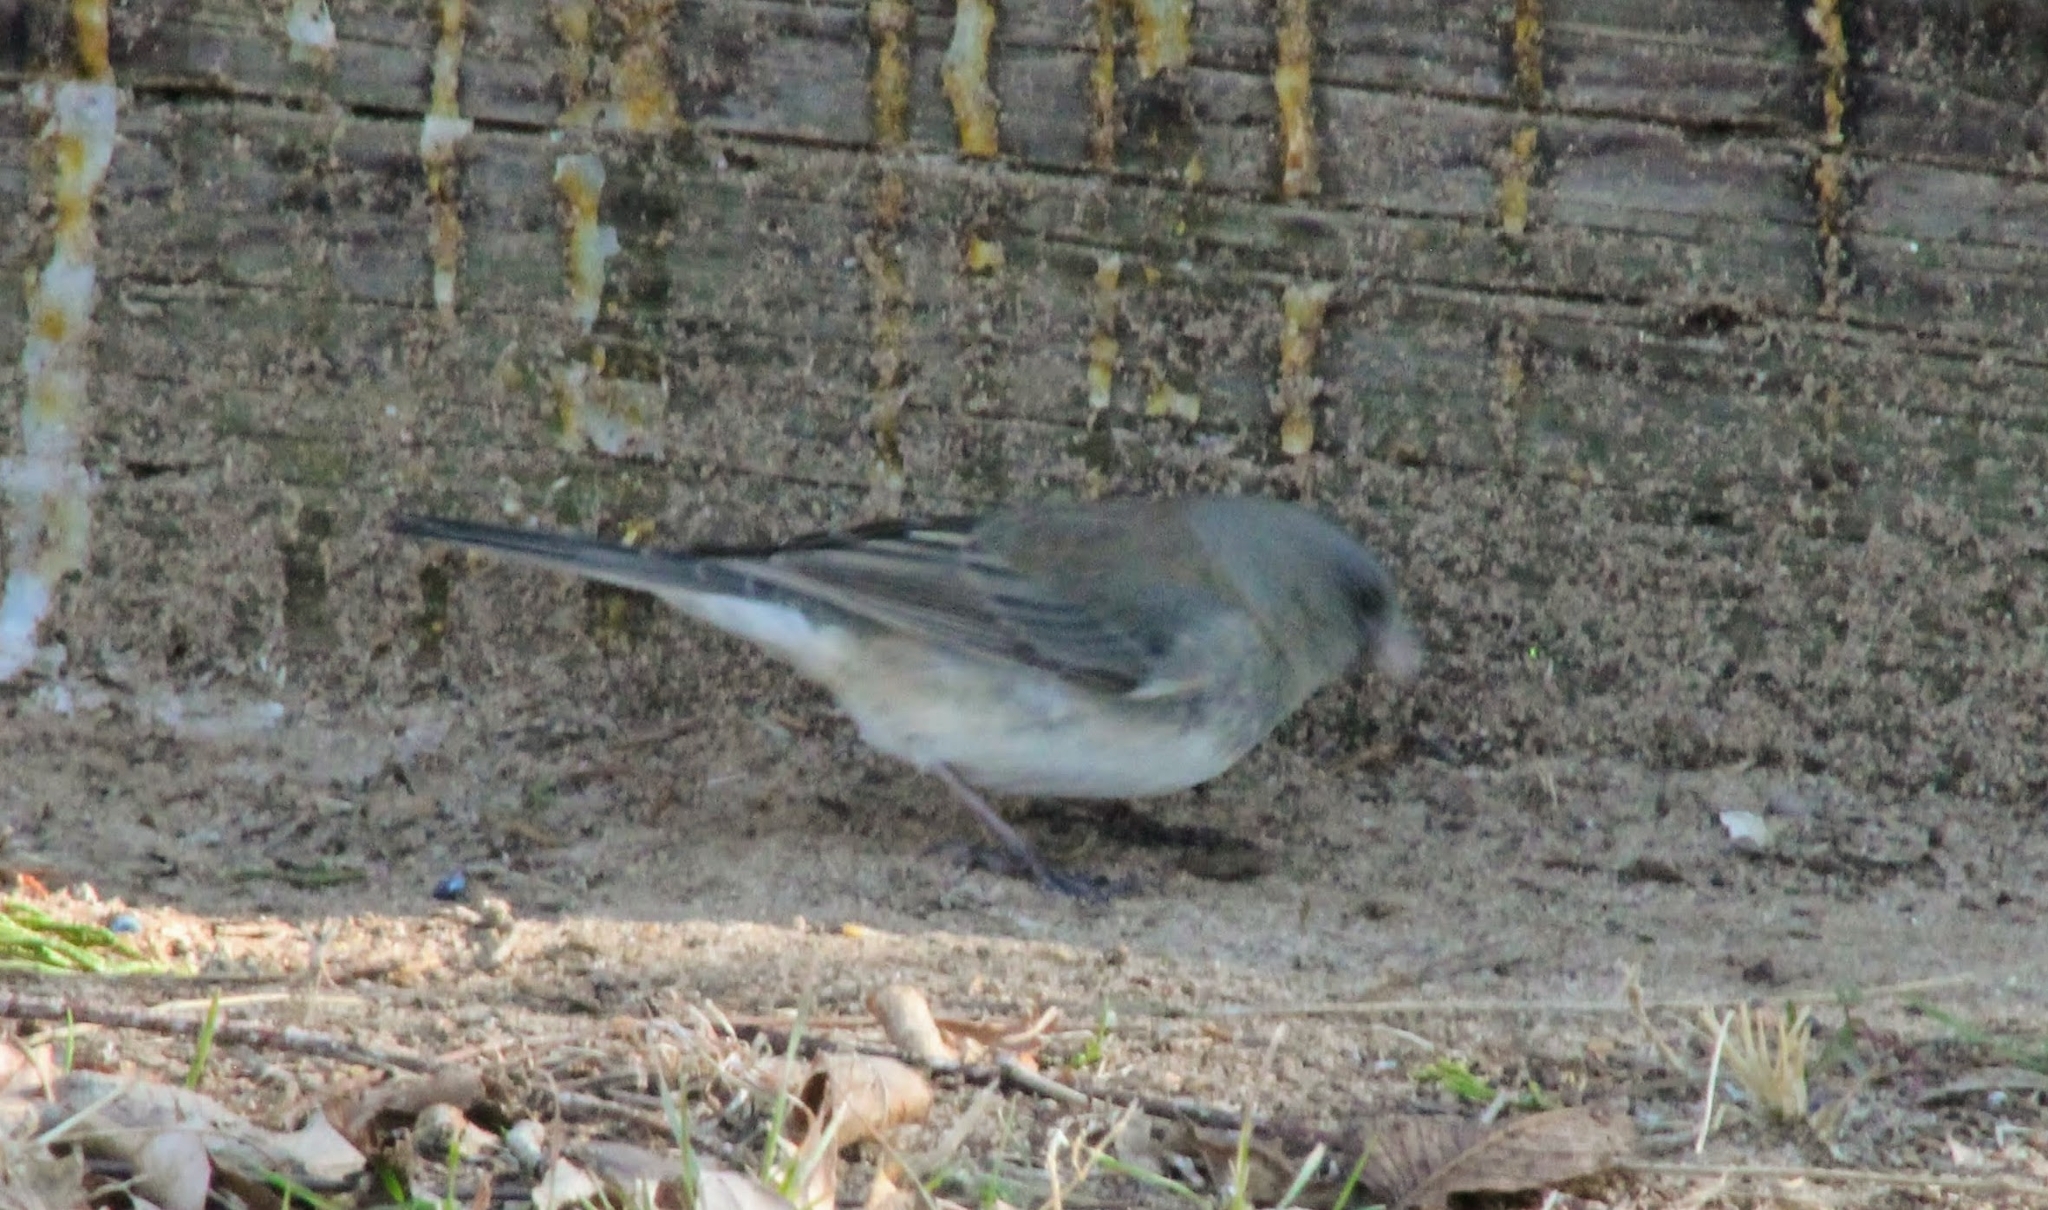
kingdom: Animalia
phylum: Chordata
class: Aves
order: Passeriformes
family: Passerellidae
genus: Junco
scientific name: Junco hyemalis
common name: Dark-eyed junco
